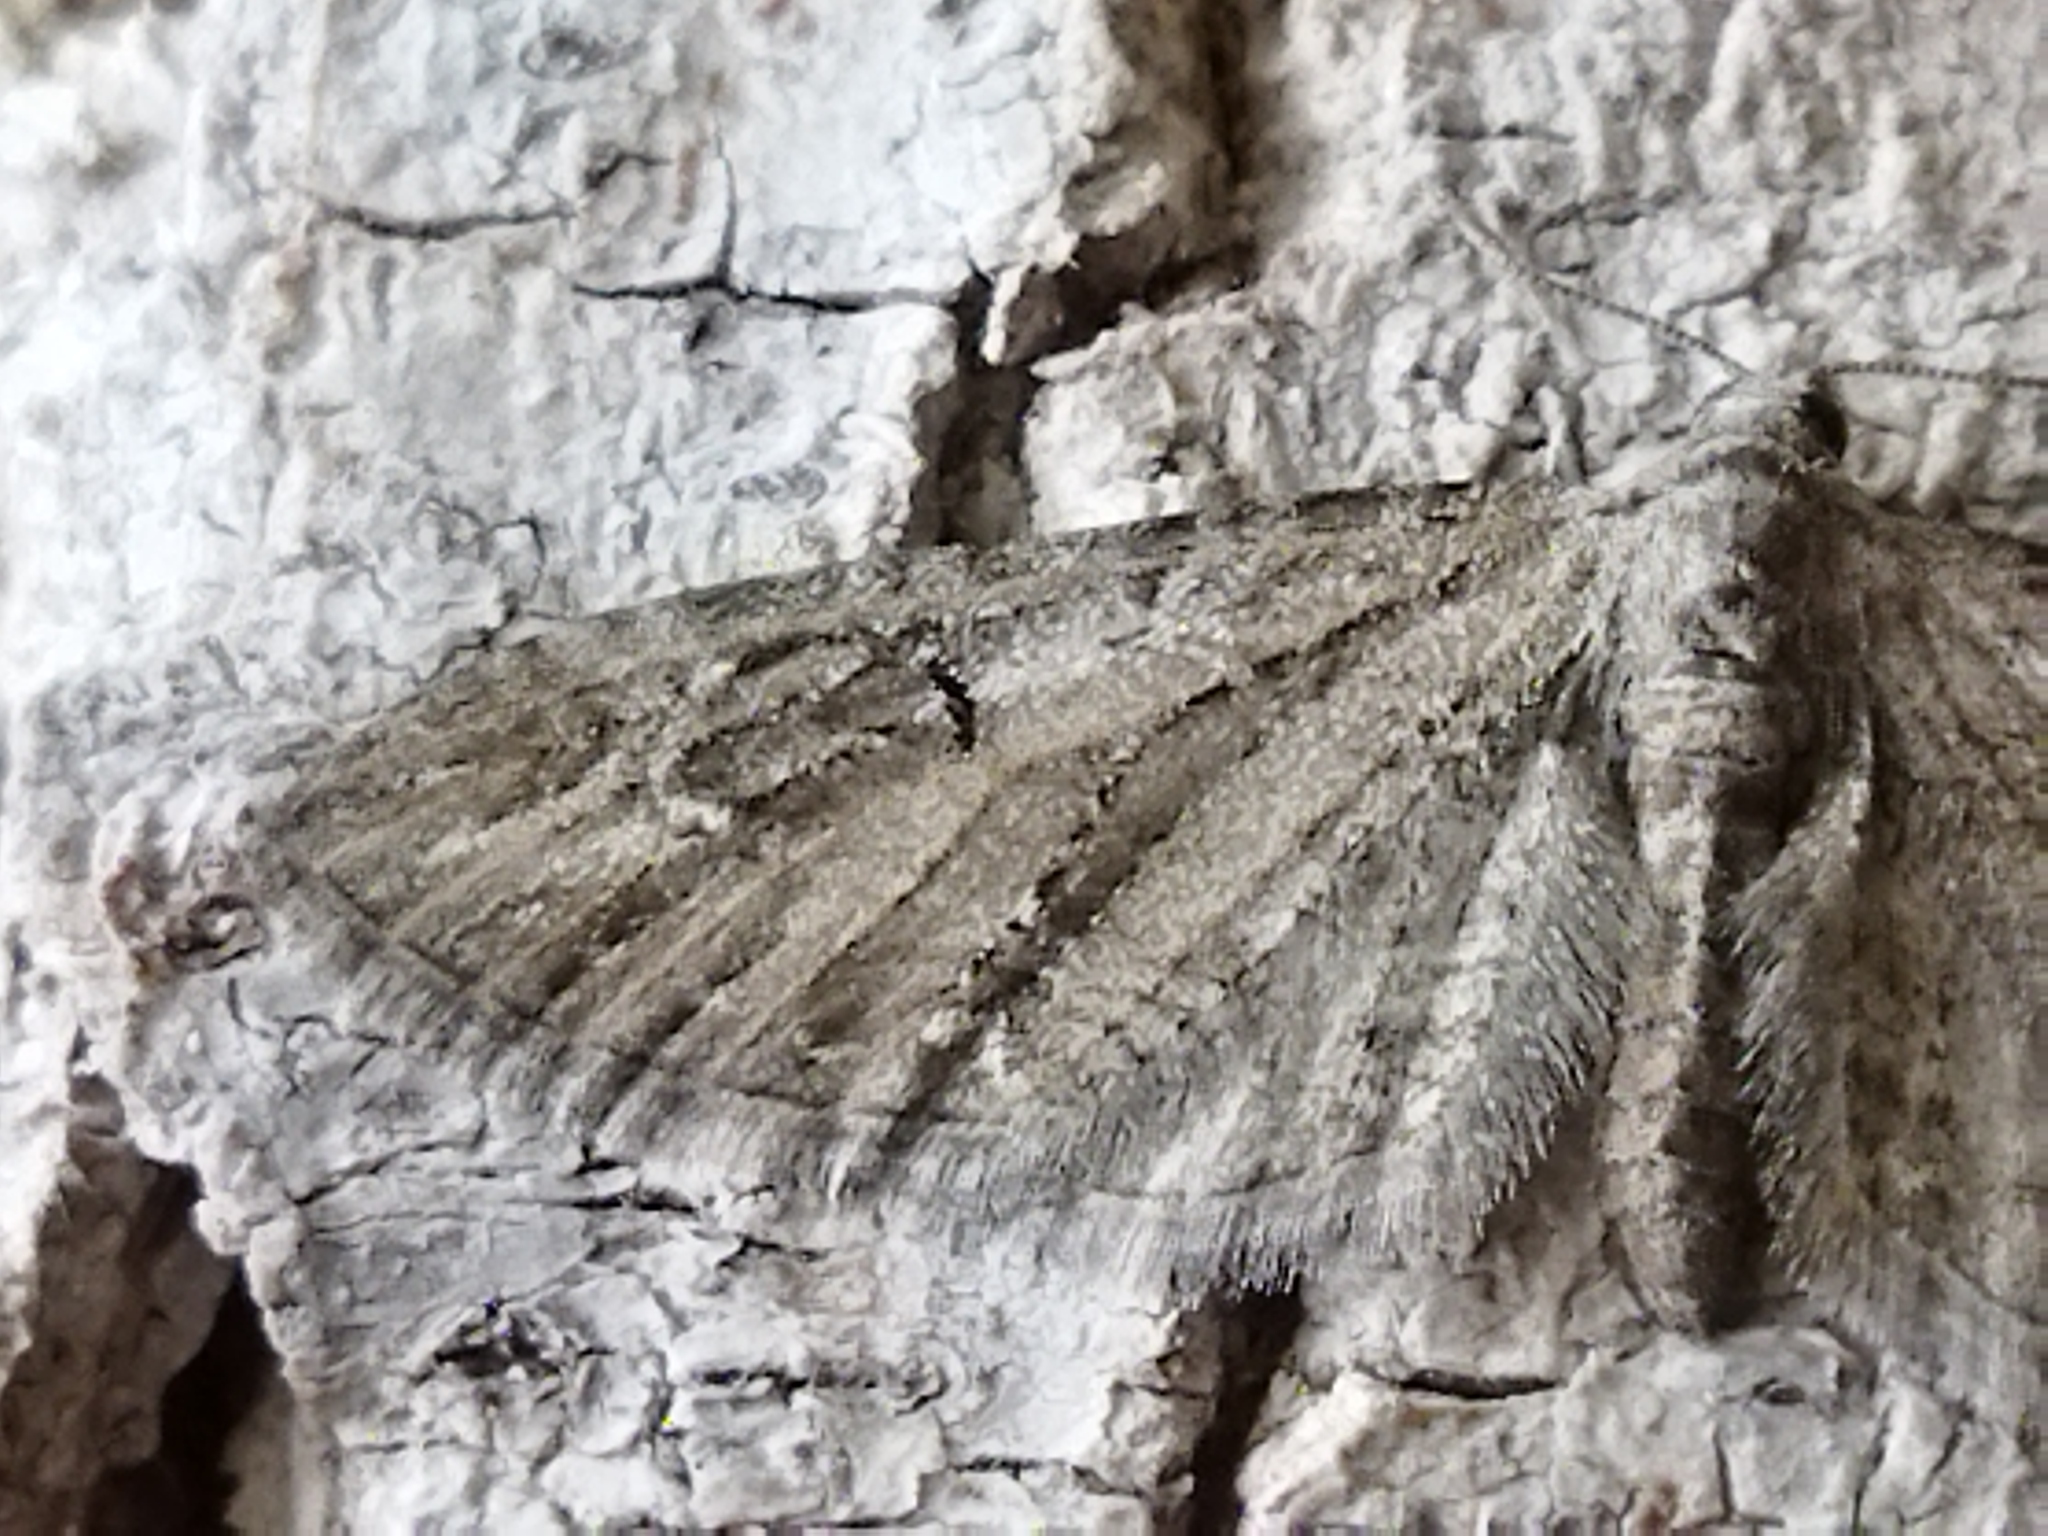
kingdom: Animalia
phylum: Arthropoda
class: Insecta
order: Lepidoptera
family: Geometridae
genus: Eupithecia
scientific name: Eupithecia ochridata
